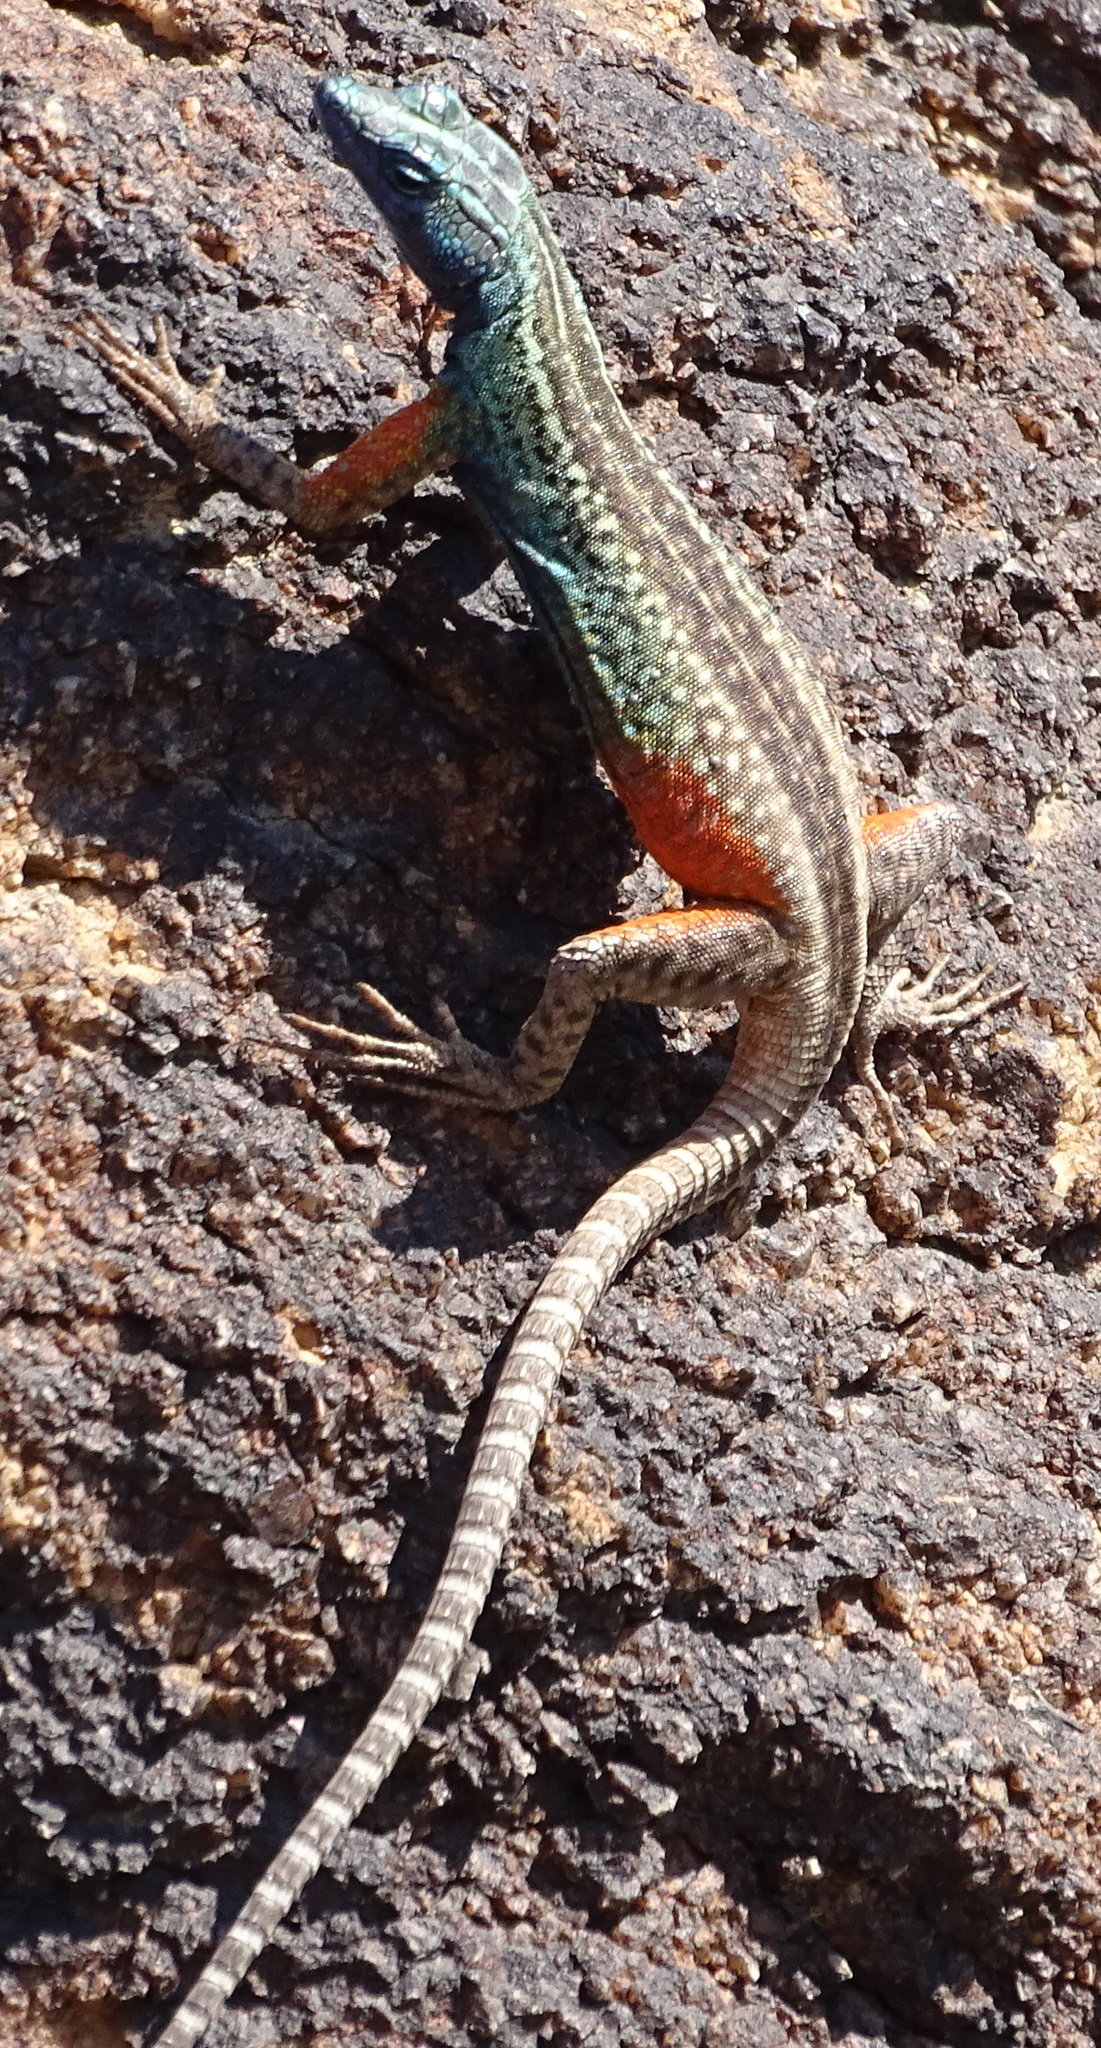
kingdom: Animalia
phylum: Chordata
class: Squamata
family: Cordylidae
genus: Platysaurus
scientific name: Platysaurus broadleyi
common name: Augrabies flat lizard
